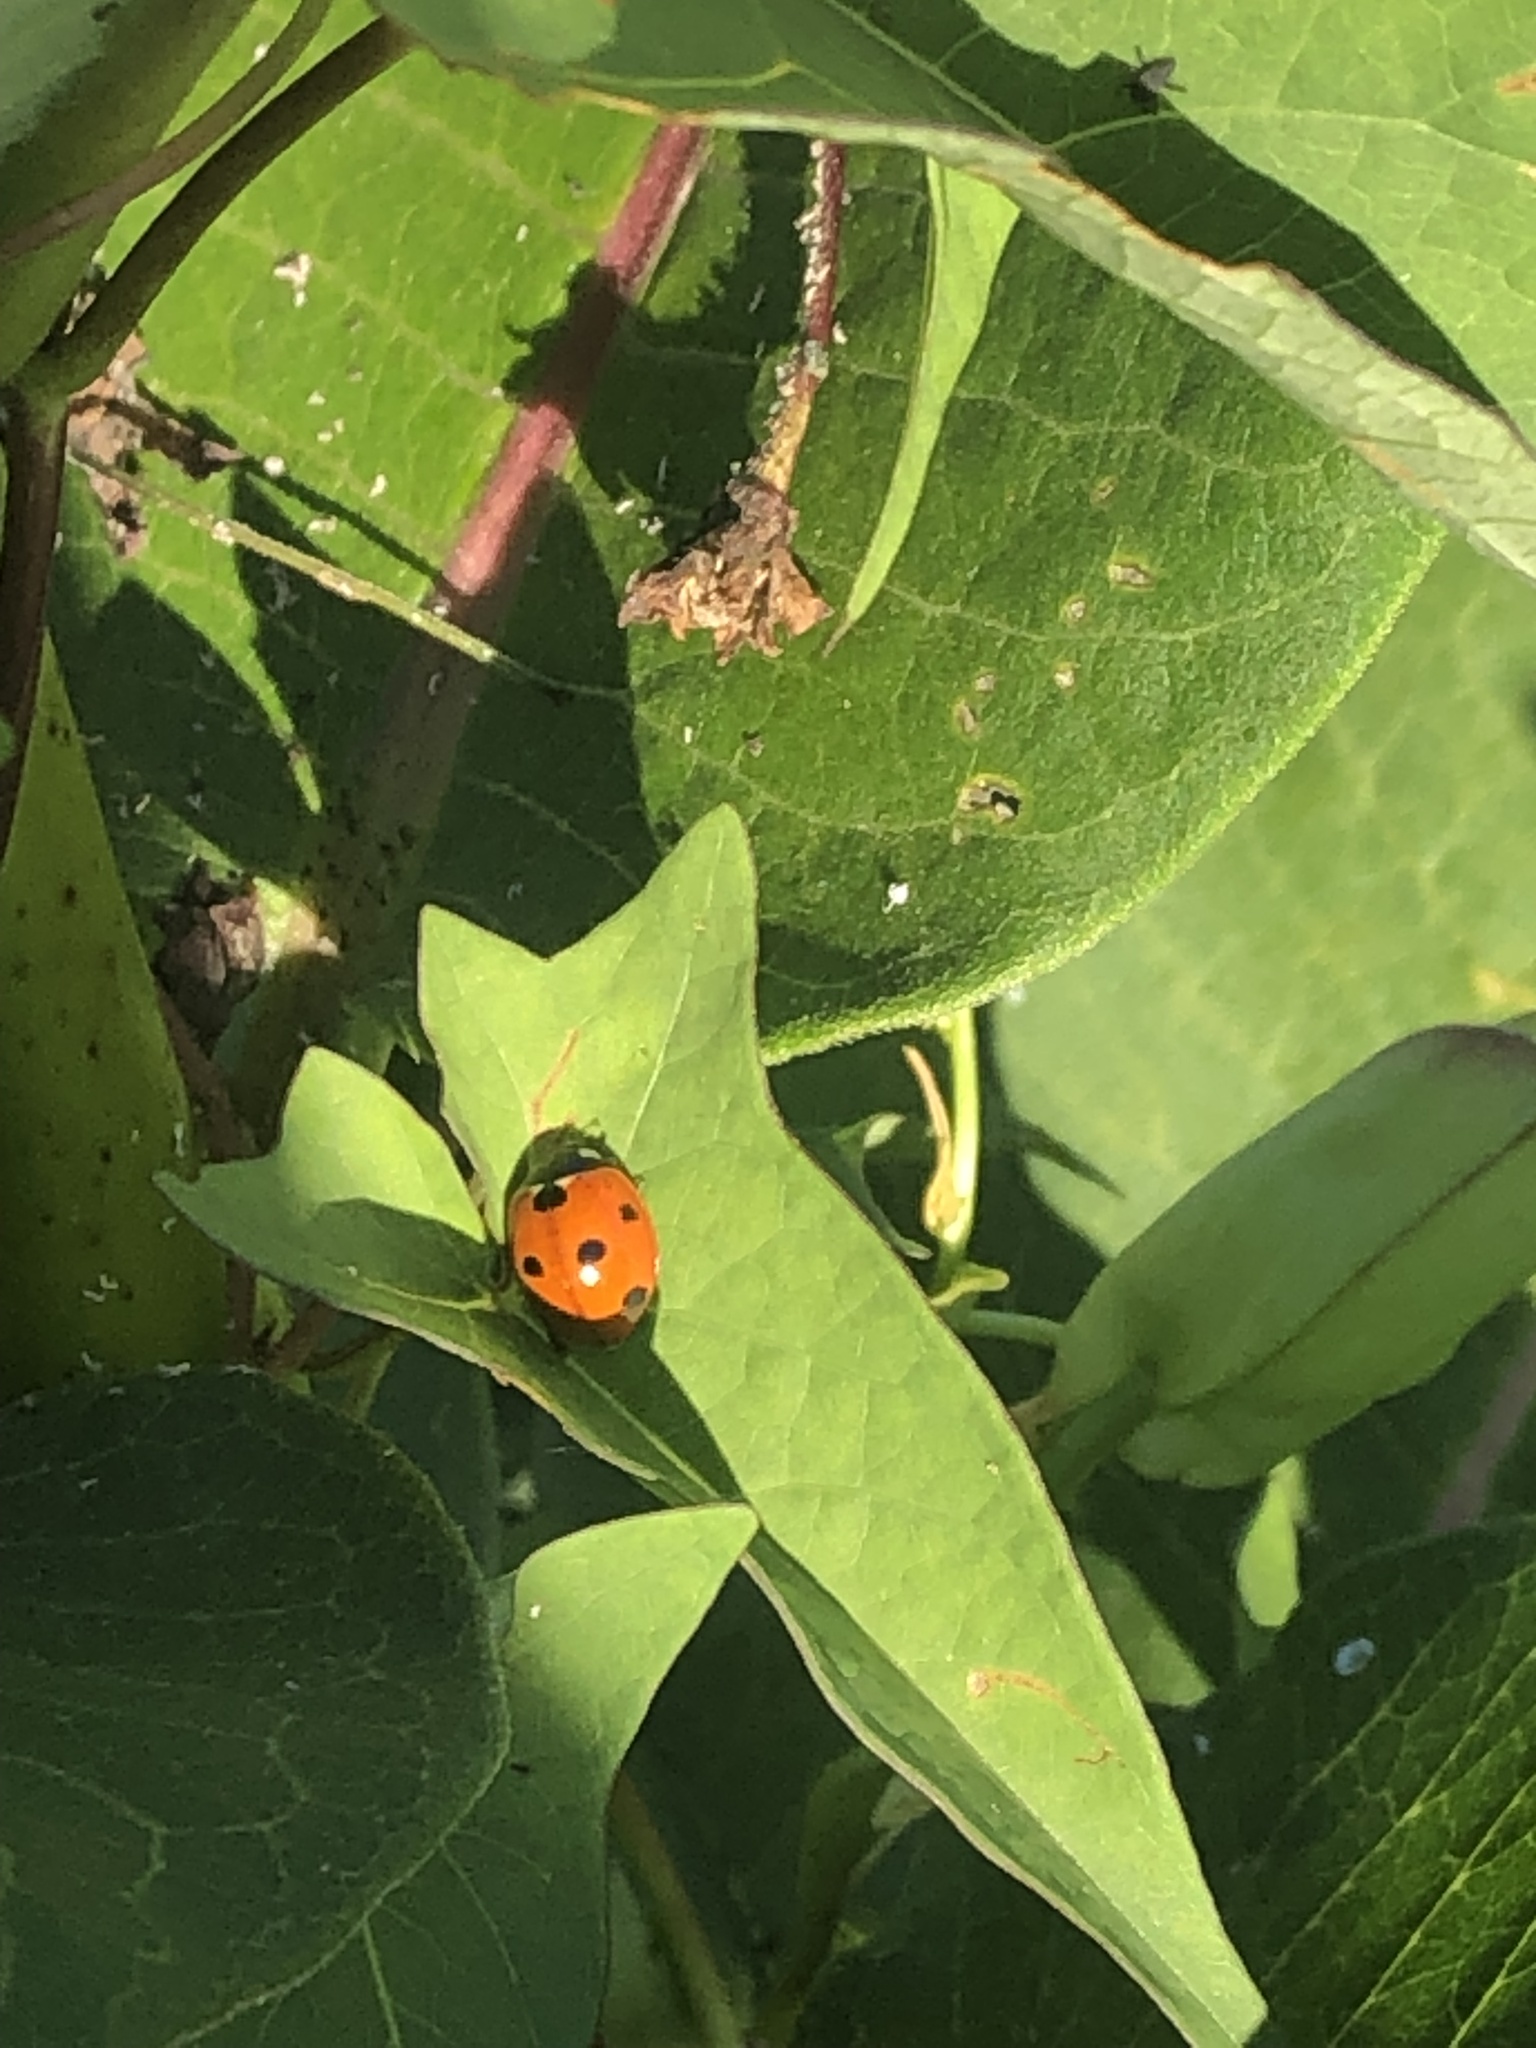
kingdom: Animalia
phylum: Arthropoda
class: Insecta
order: Coleoptera
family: Coccinellidae
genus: Coccinella
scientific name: Coccinella septempunctata
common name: Sevenspotted lady beetle
